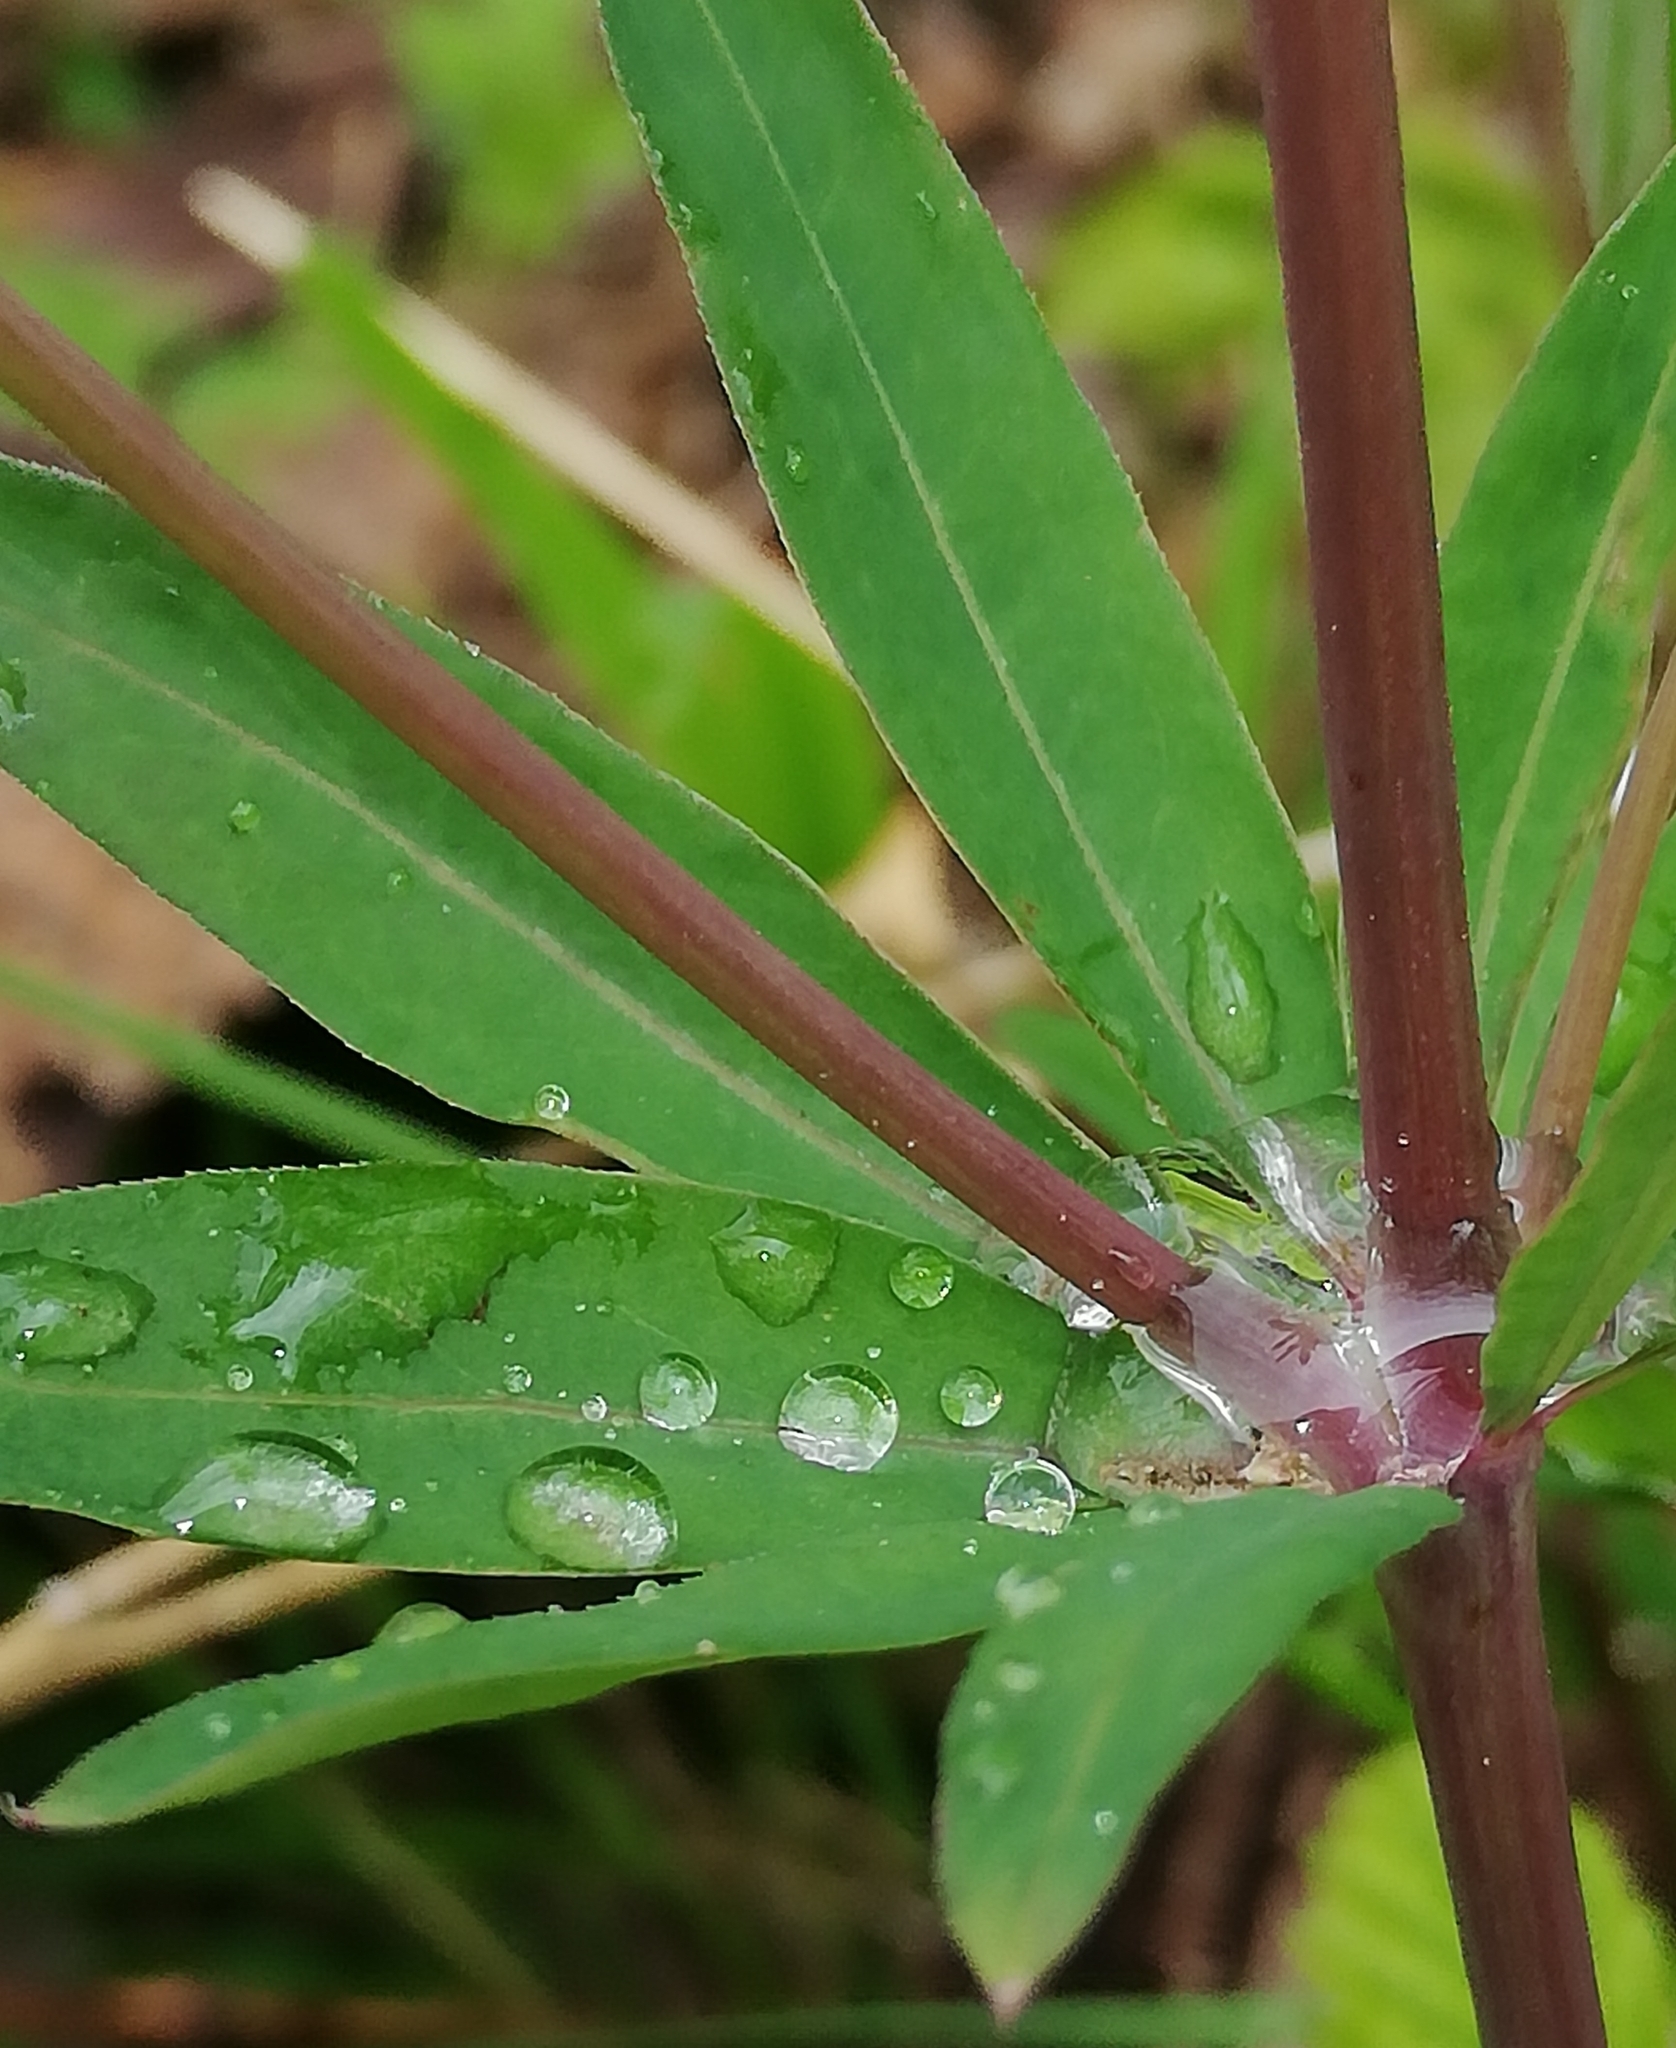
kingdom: Plantae
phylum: Tracheophyta
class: Magnoliopsida
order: Gentianales
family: Rubiaceae
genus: Galium
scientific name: Galium sylvaticum
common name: Wood bedstraw
